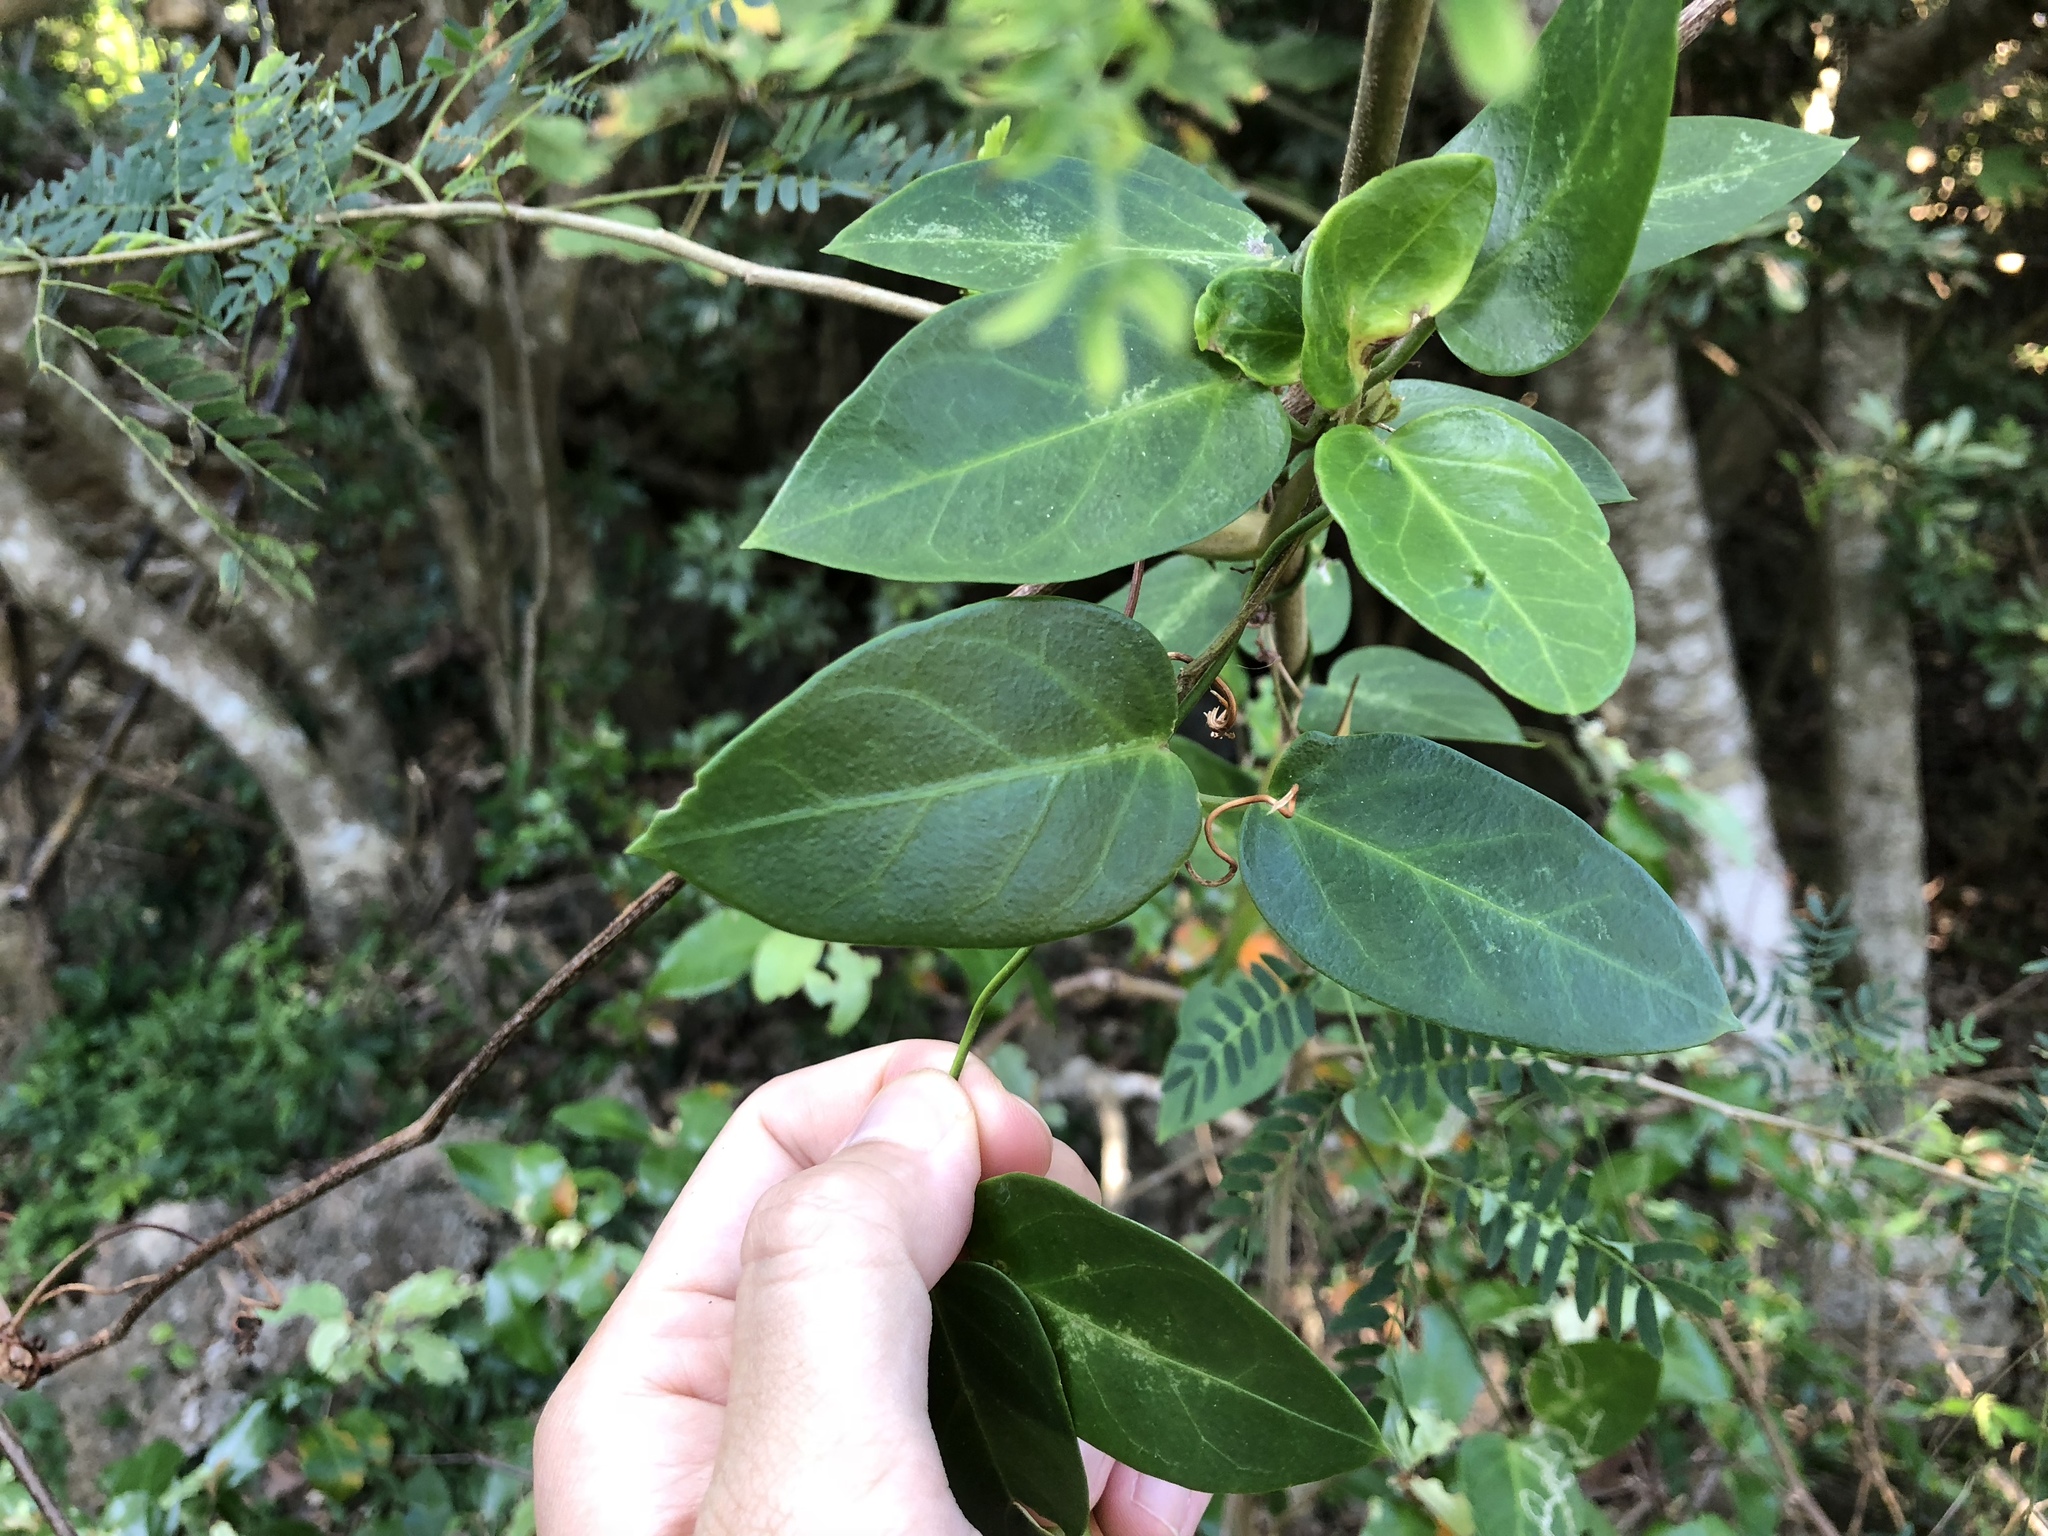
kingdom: Plantae
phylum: Tracheophyta
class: Magnoliopsida
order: Gentianales
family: Apocynaceae
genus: Vincetoxicum
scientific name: Vincetoxicum hirsutum
